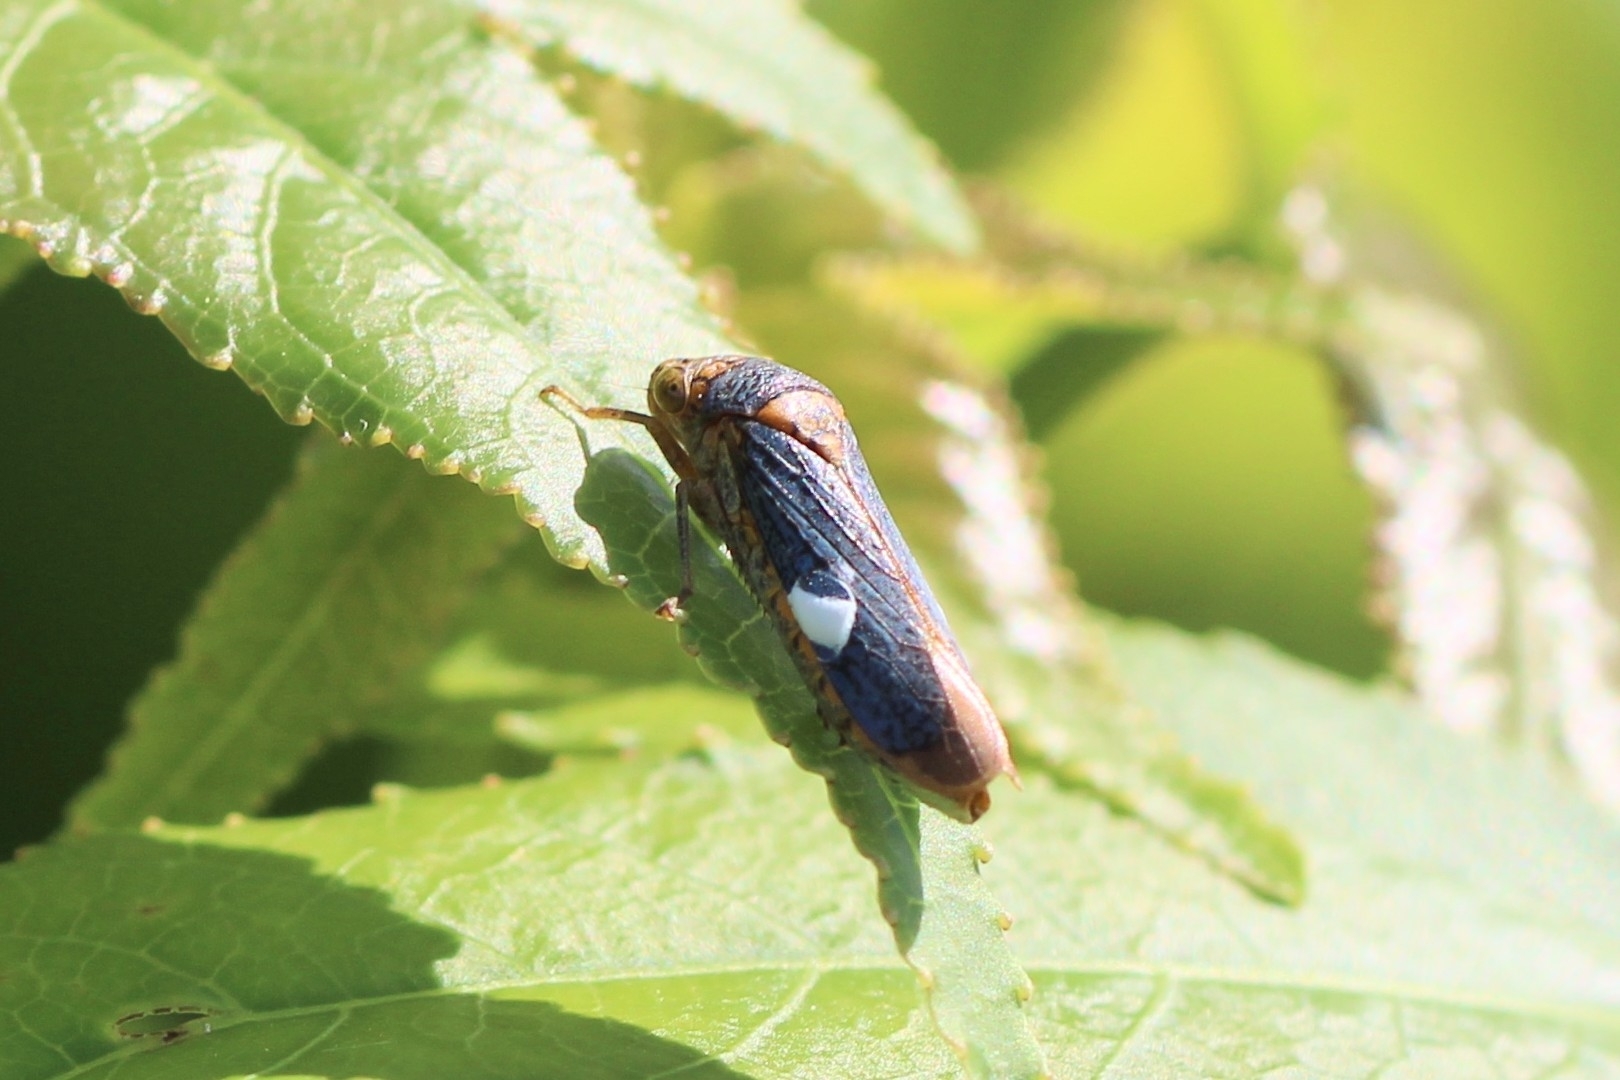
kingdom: Animalia
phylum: Arthropoda
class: Insecta
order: Hemiptera
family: Cicadellidae
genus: Oncometopia
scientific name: Oncometopia orbona
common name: Broad-headed sharpshooter
